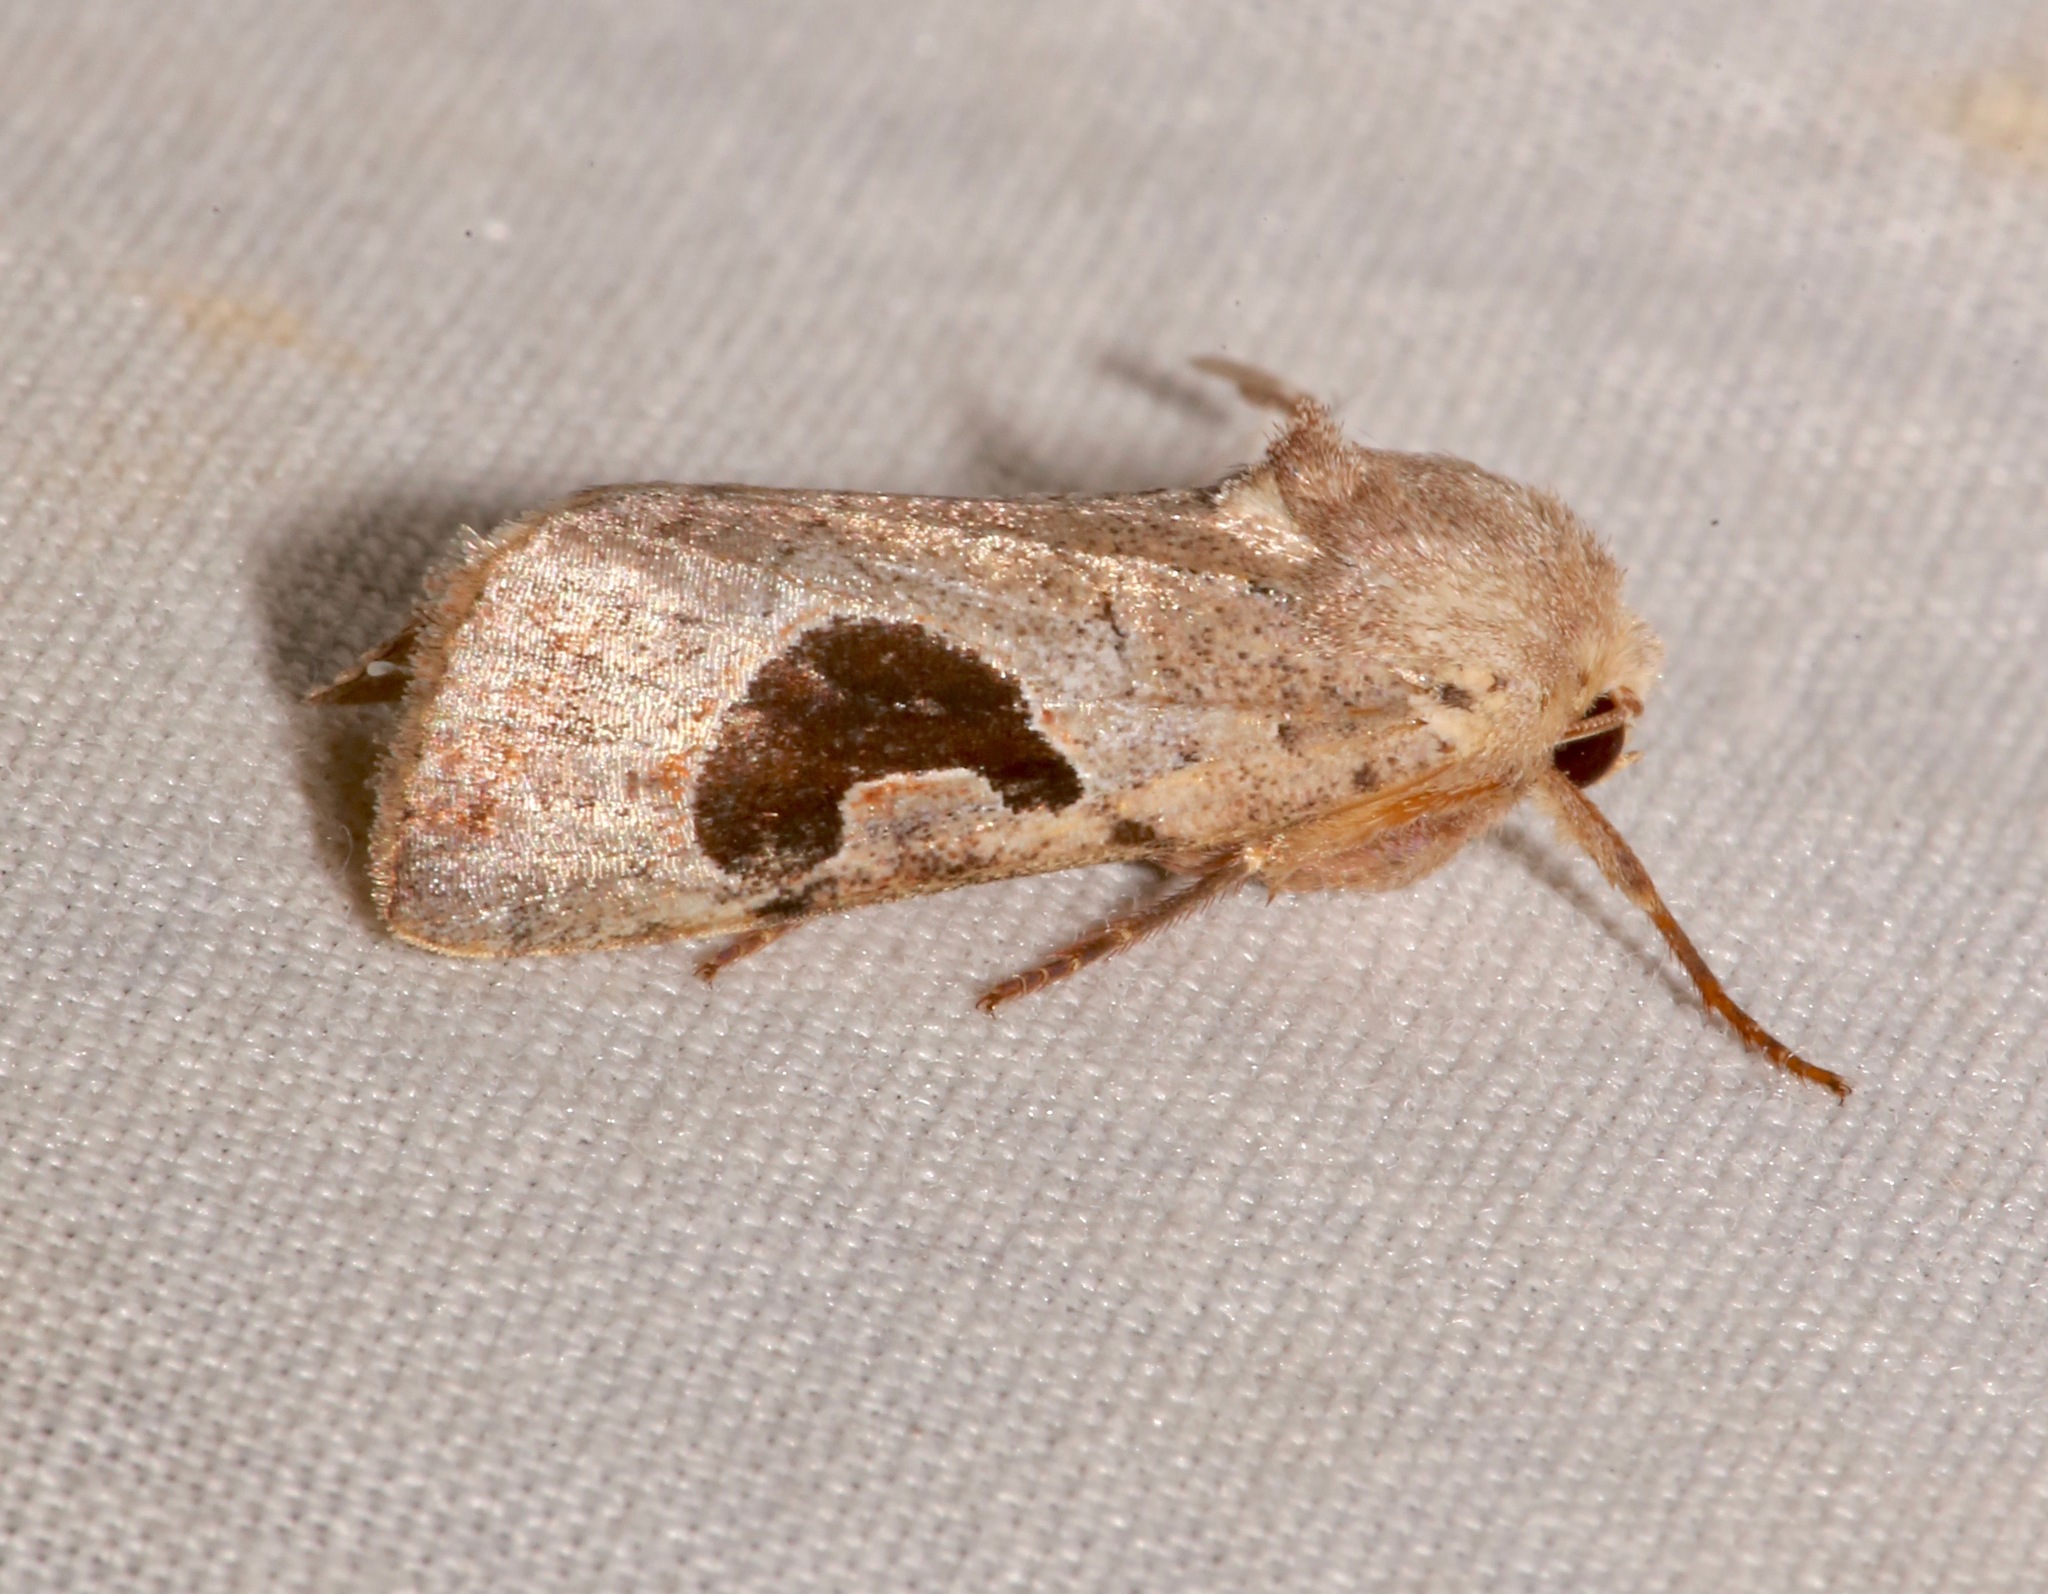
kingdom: Animalia
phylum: Arthropoda
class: Insecta
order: Lepidoptera
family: Noctuidae
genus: Eriopyga
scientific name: Eriopyga lunata
